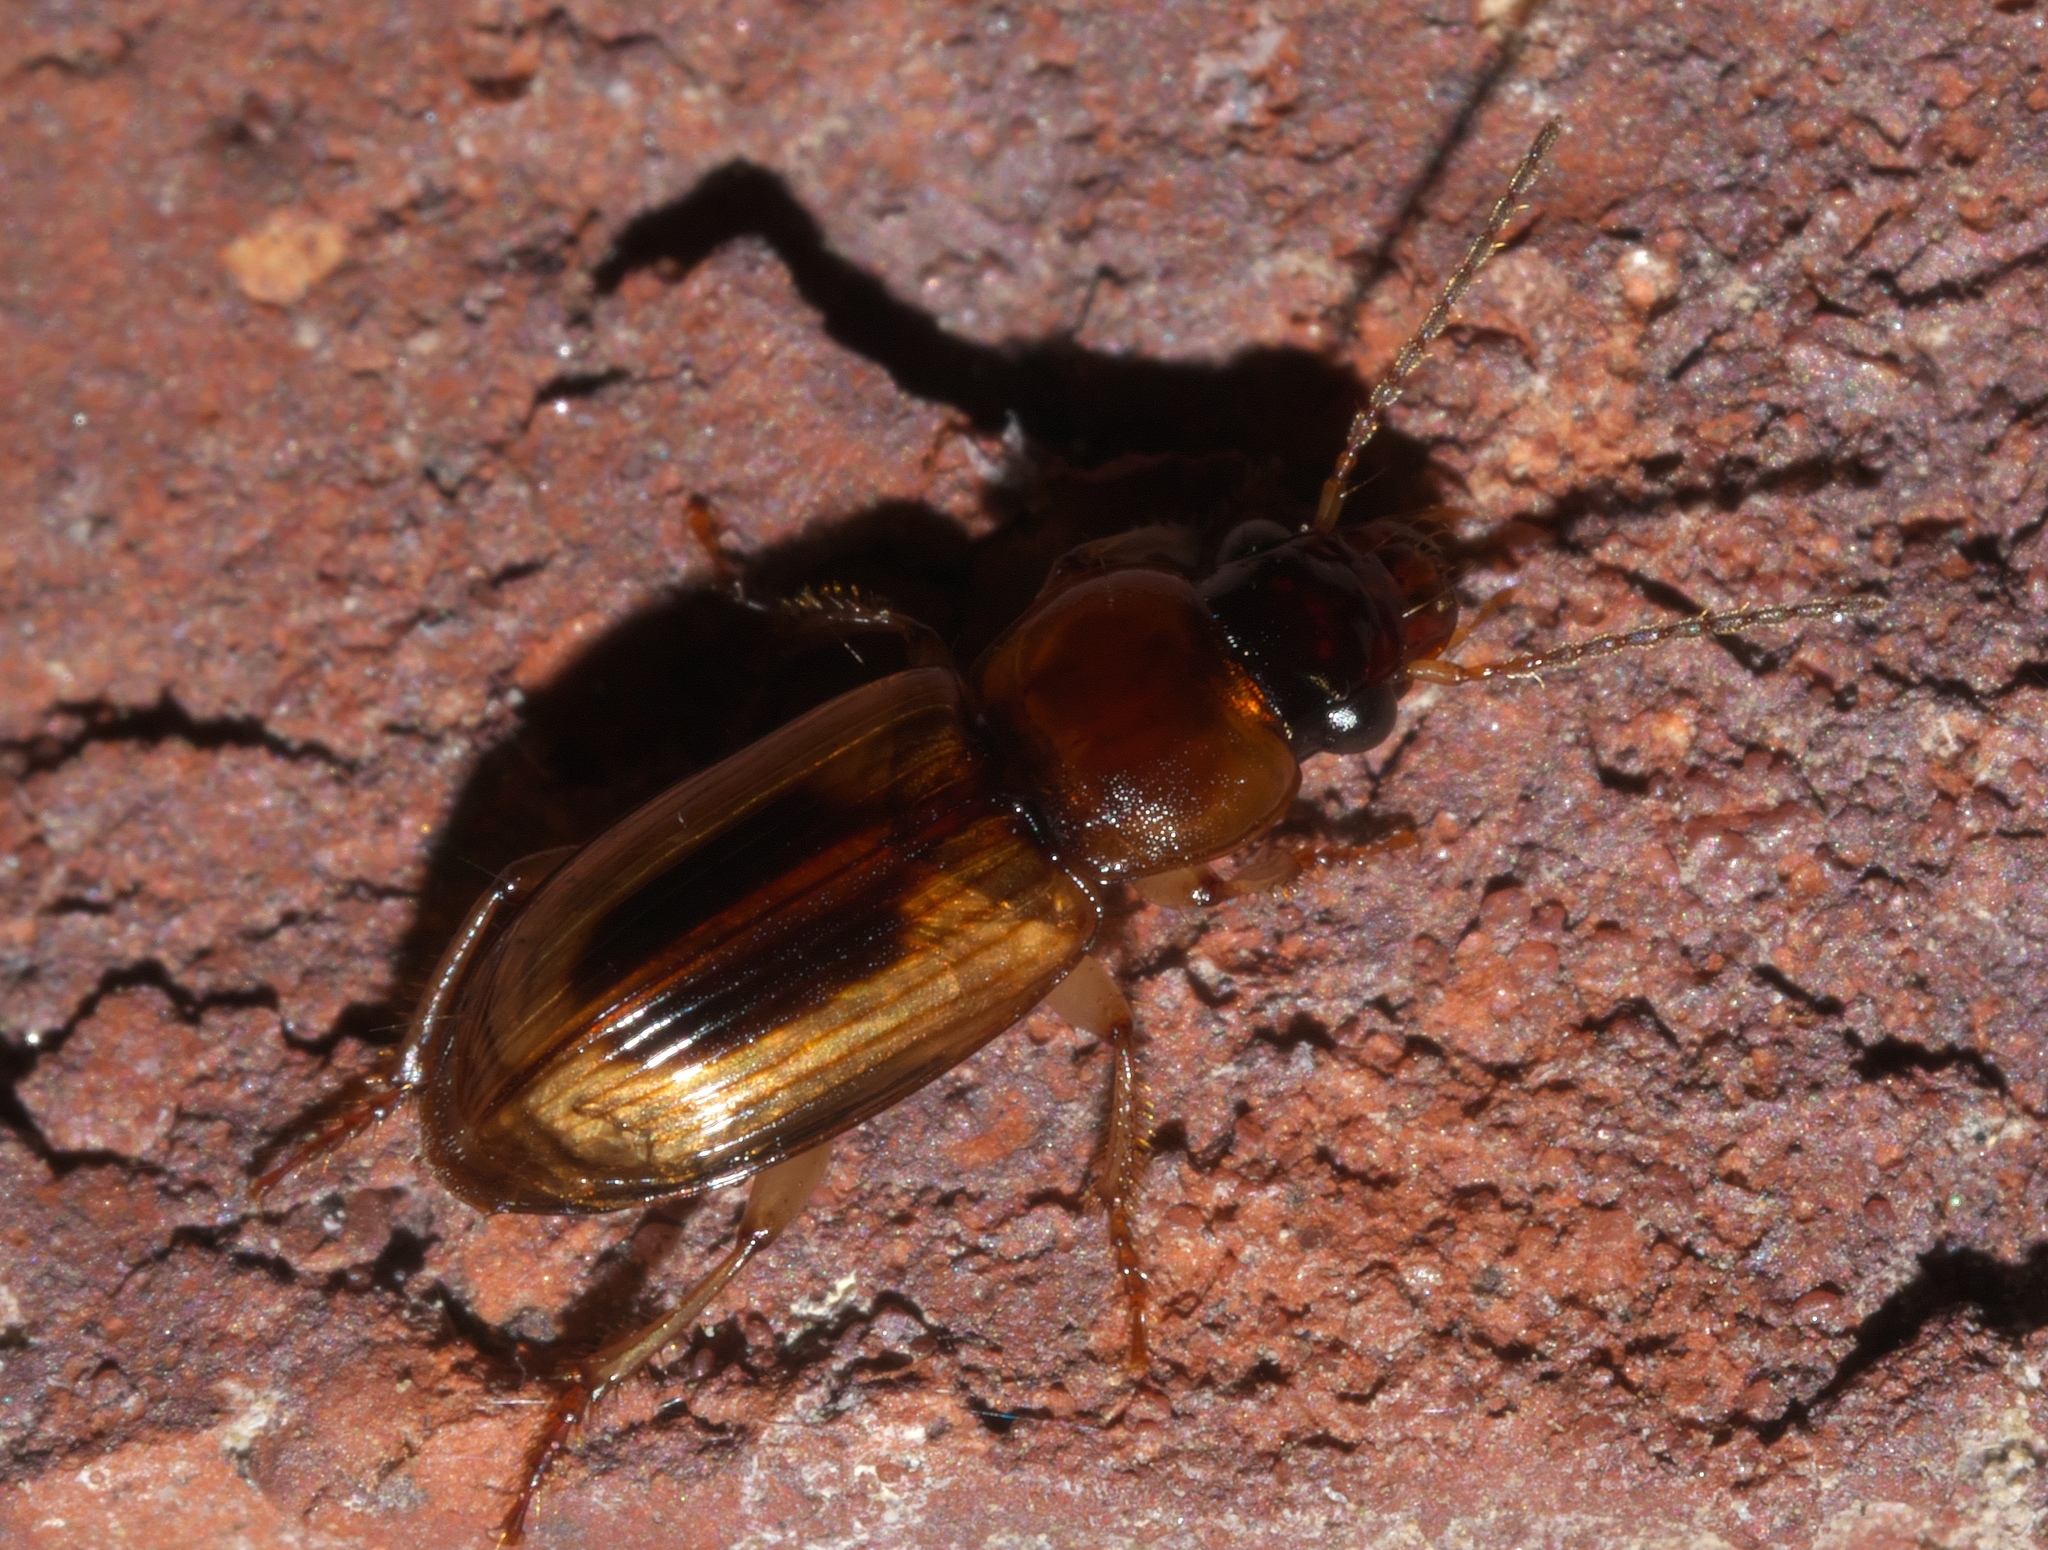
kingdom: Animalia
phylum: Arthropoda
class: Insecta
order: Coleoptera
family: Carabidae
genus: Stenolophus
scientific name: Stenolophus lecontei
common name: Leconte's seedcorn beetle
